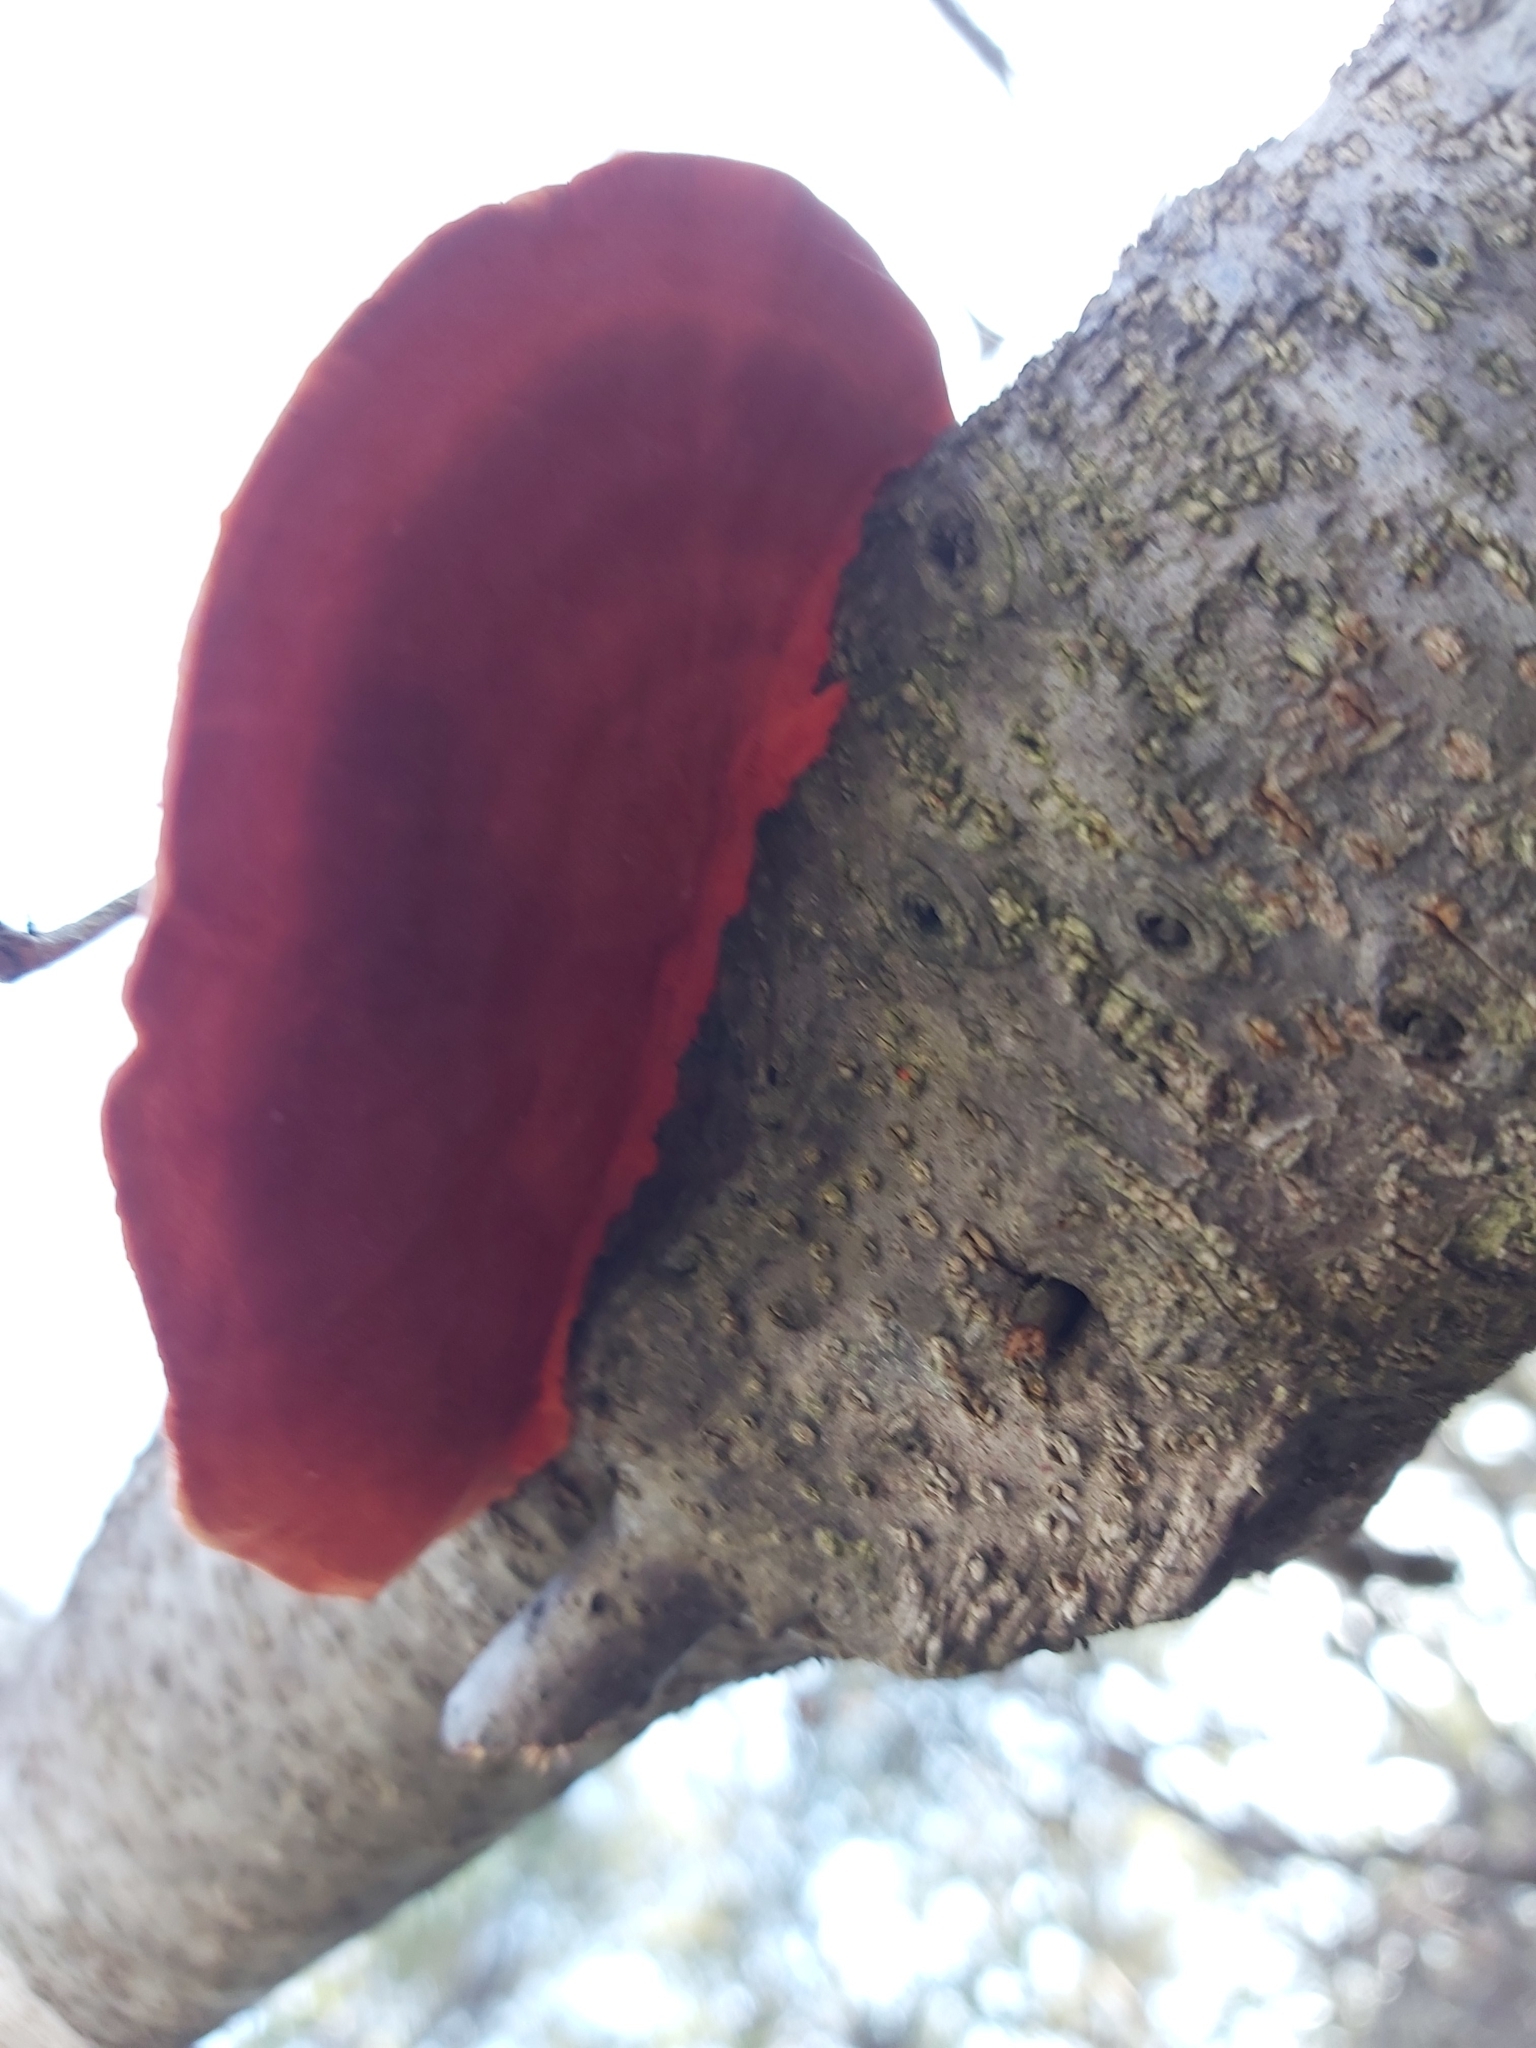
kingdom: Fungi
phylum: Basidiomycota
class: Agaricomycetes
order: Polyporales
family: Polyporaceae
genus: Trametes
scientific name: Trametes coccinea
